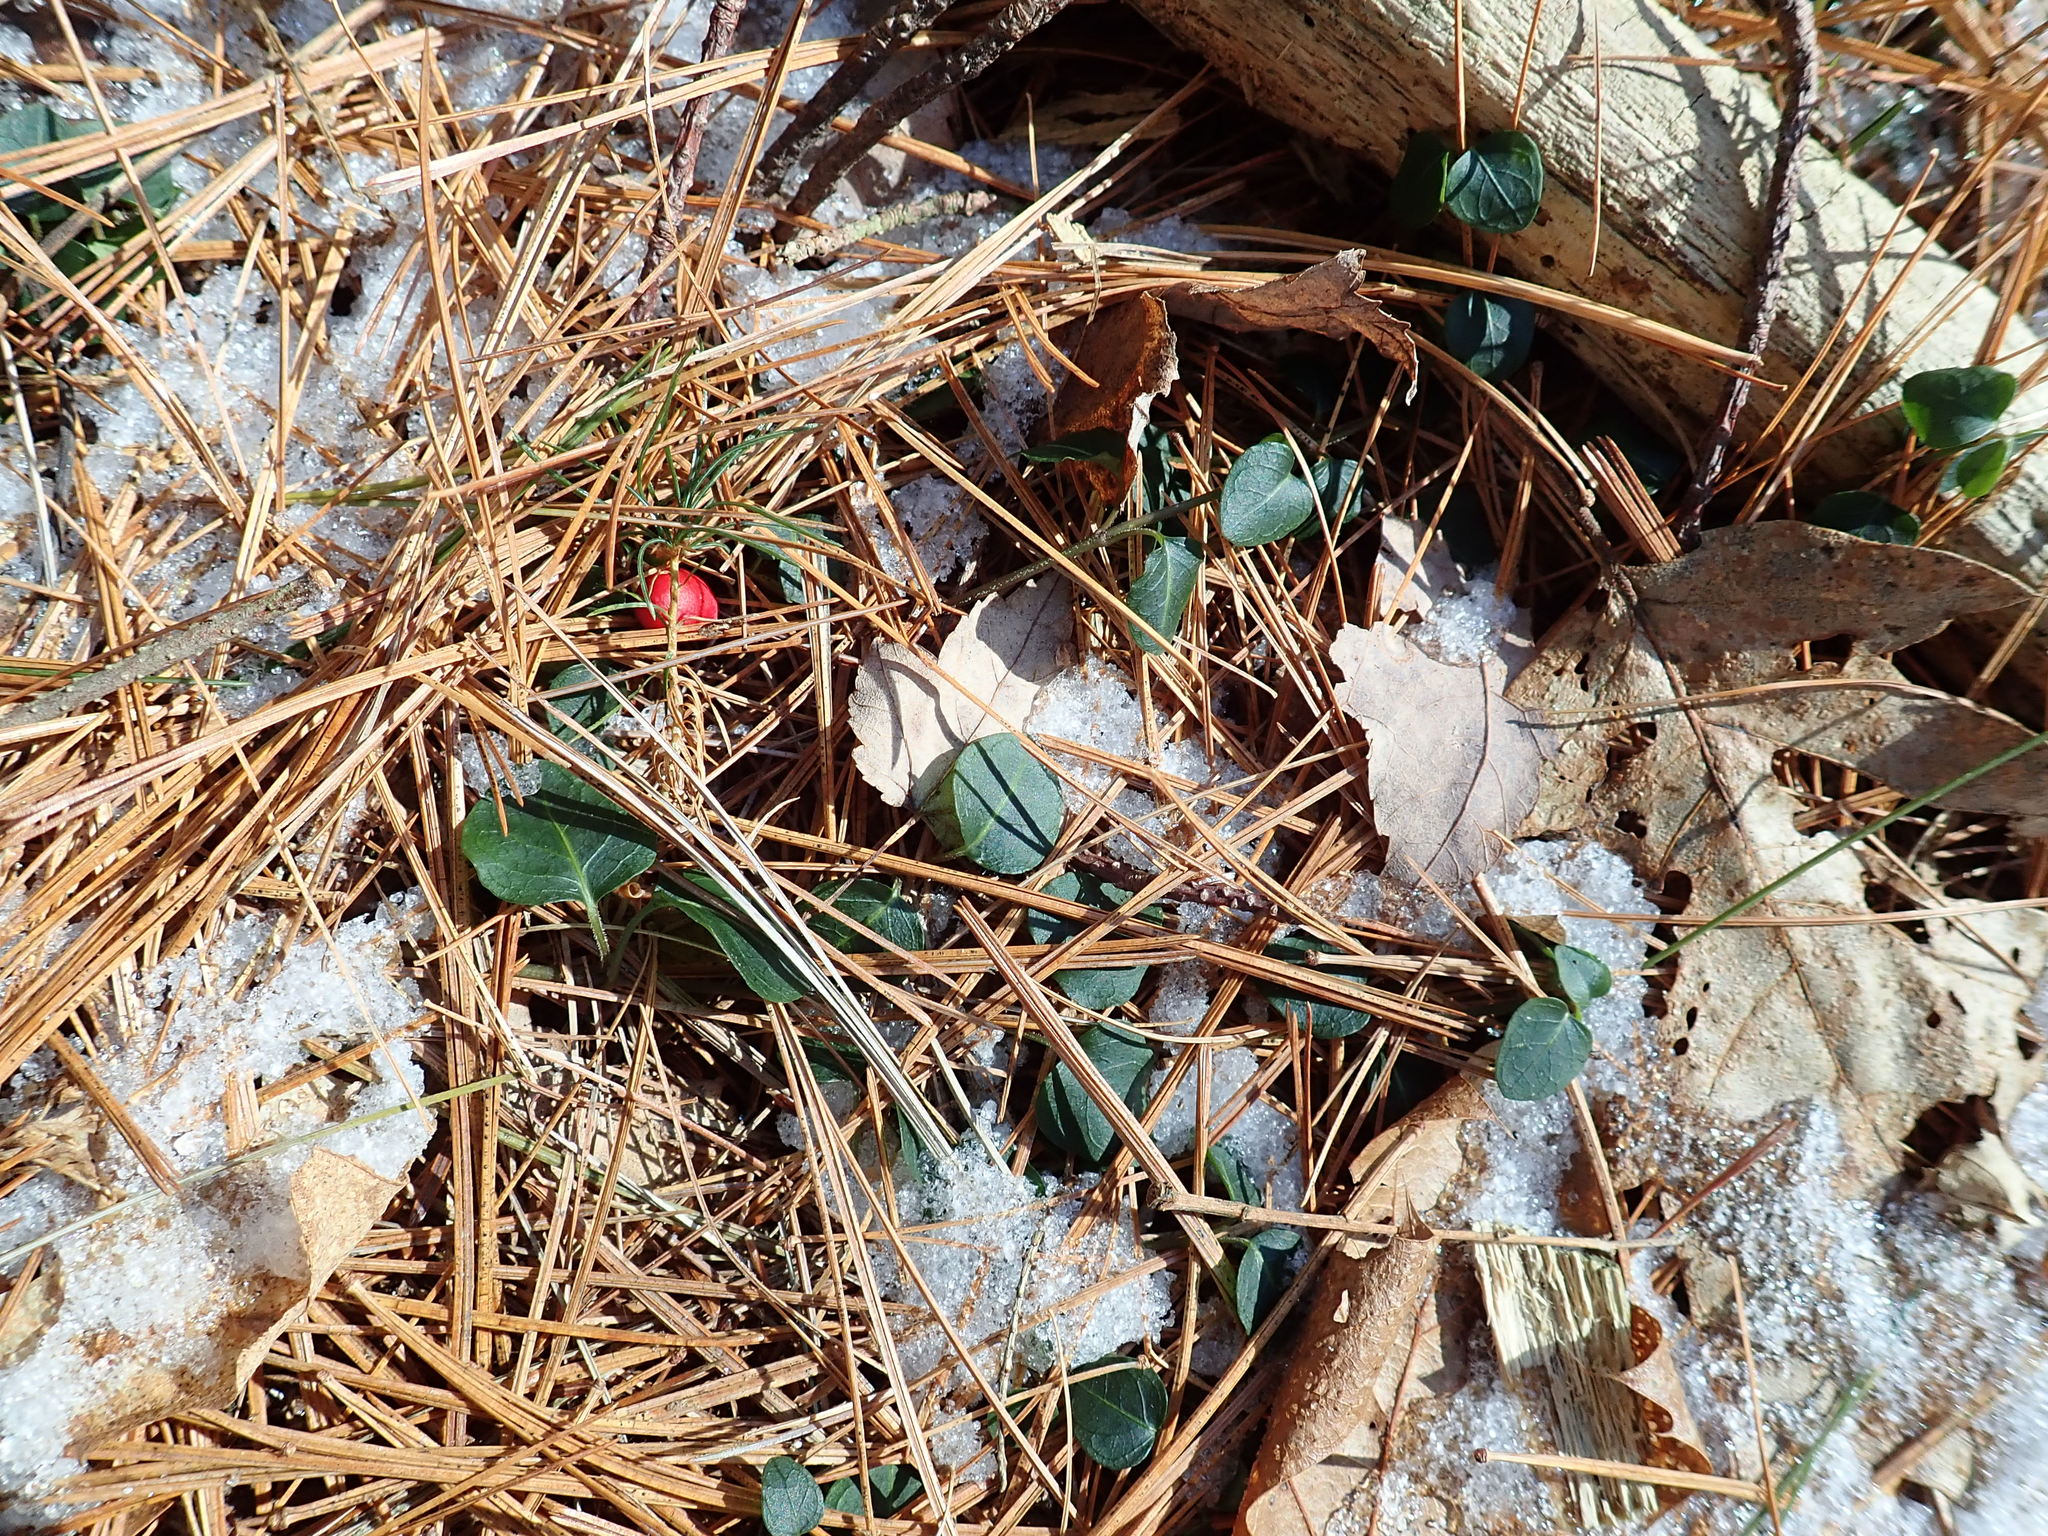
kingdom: Plantae
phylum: Tracheophyta
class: Magnoliopsida
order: Gentianales
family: Rubiaceae
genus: Mitchella
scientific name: Mitchella repens
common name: Partridge-berry
